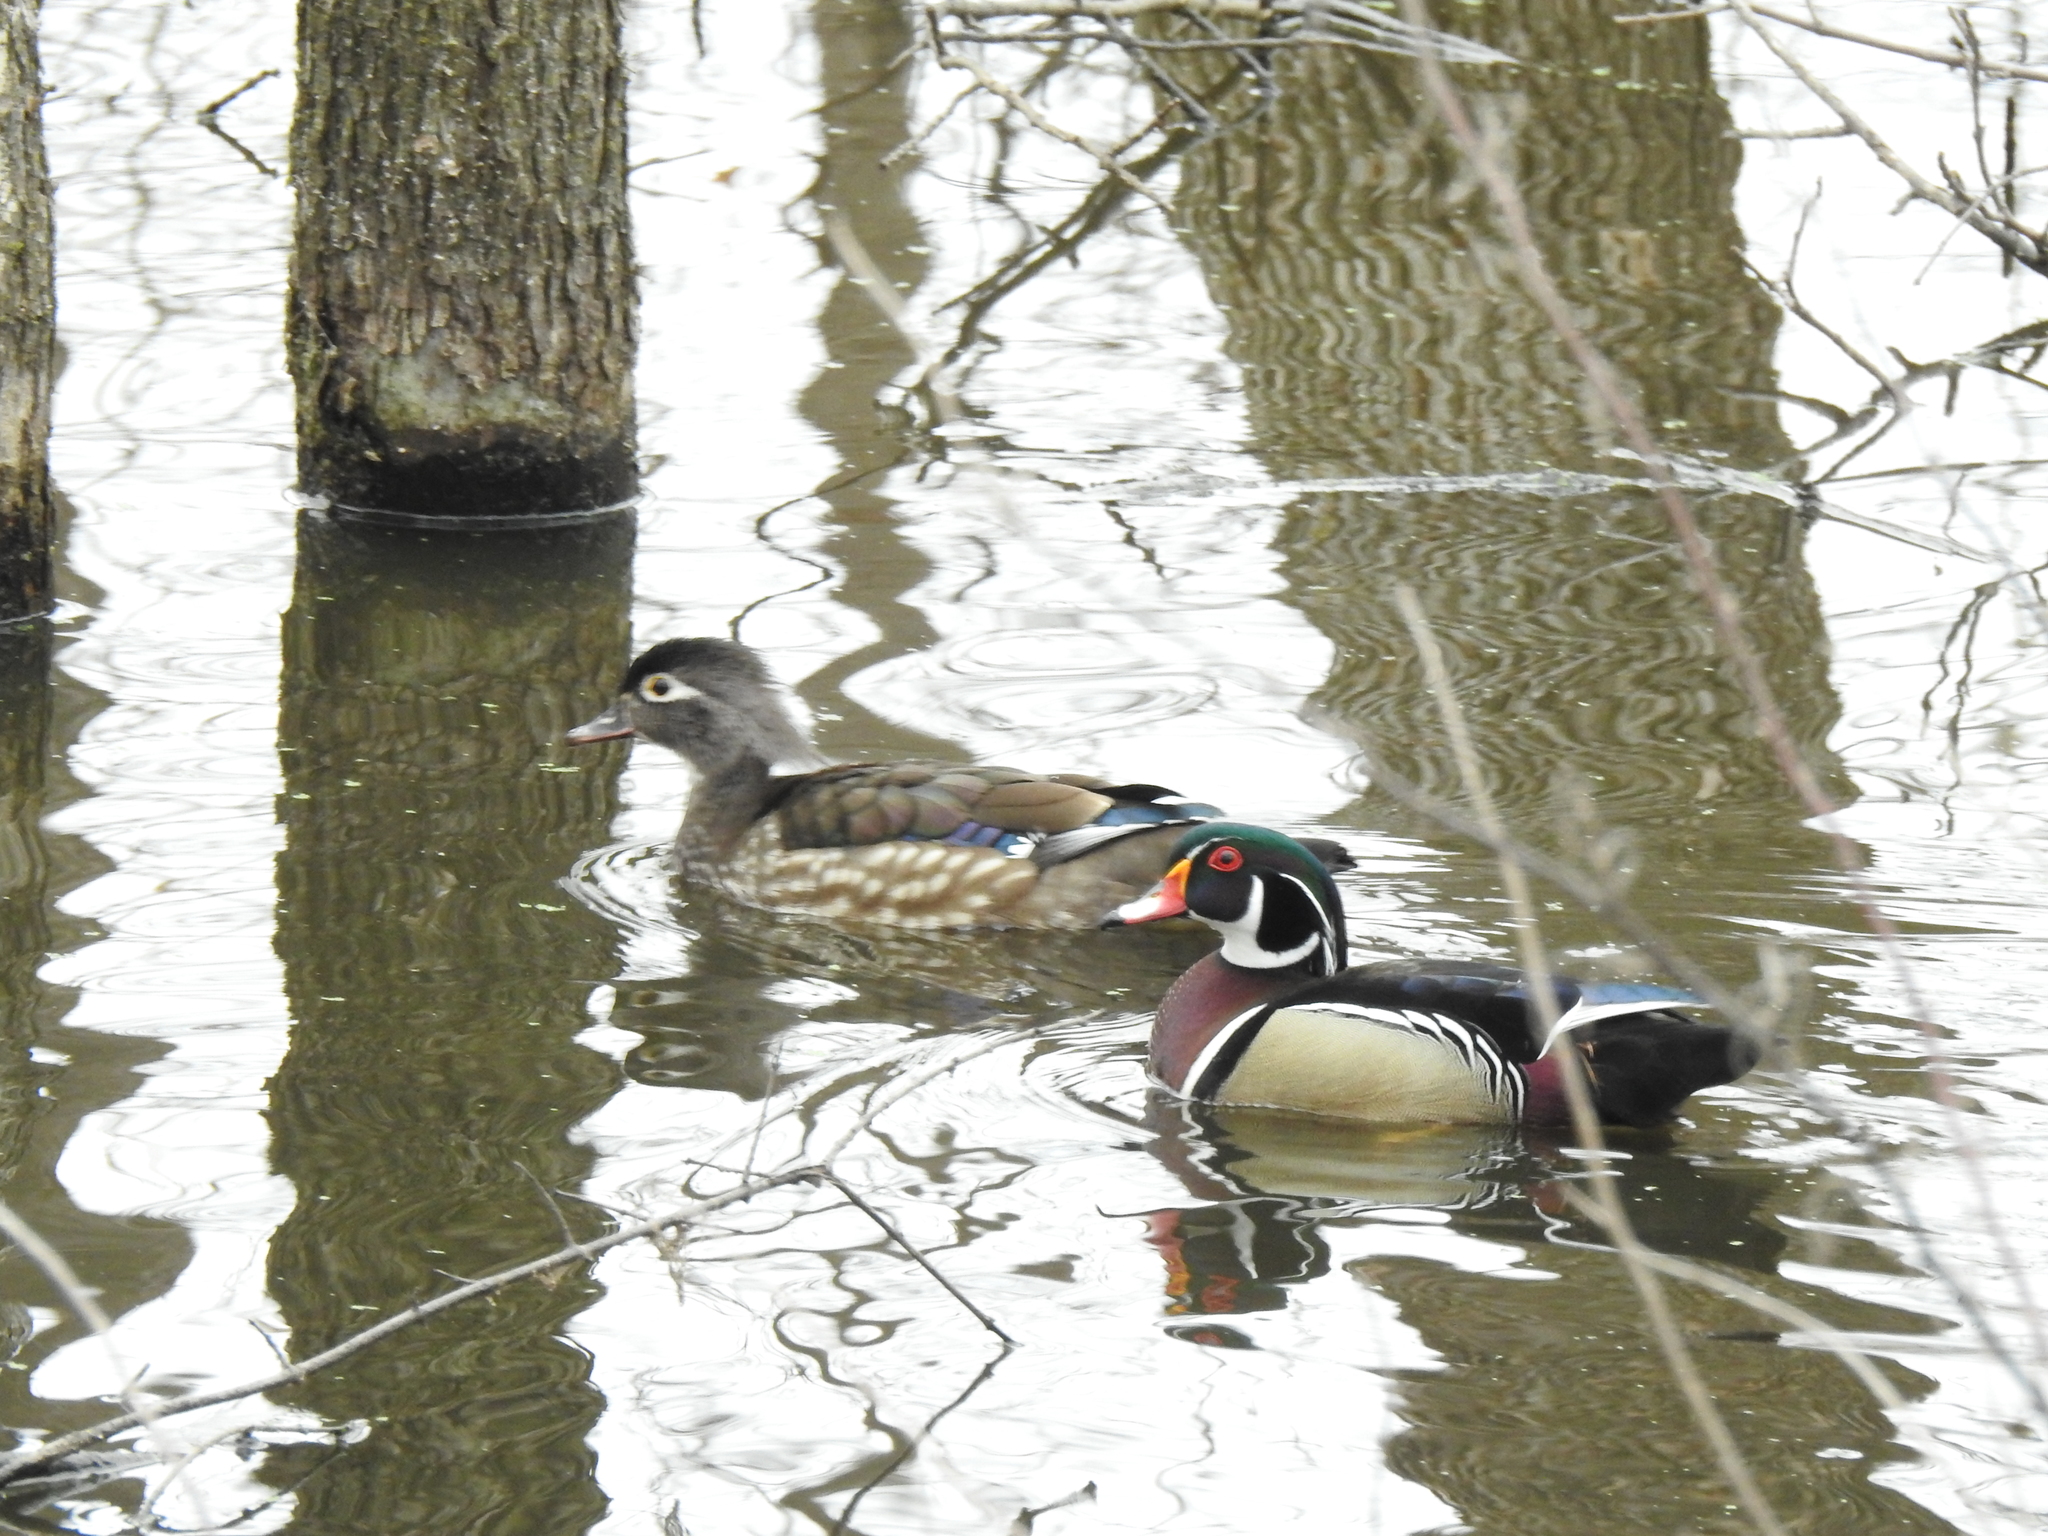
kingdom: Animalia
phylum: Chordata
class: Aves
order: Anseriformes
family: Anatidae
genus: Aix
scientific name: Aix sponsa
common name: Wood duck
